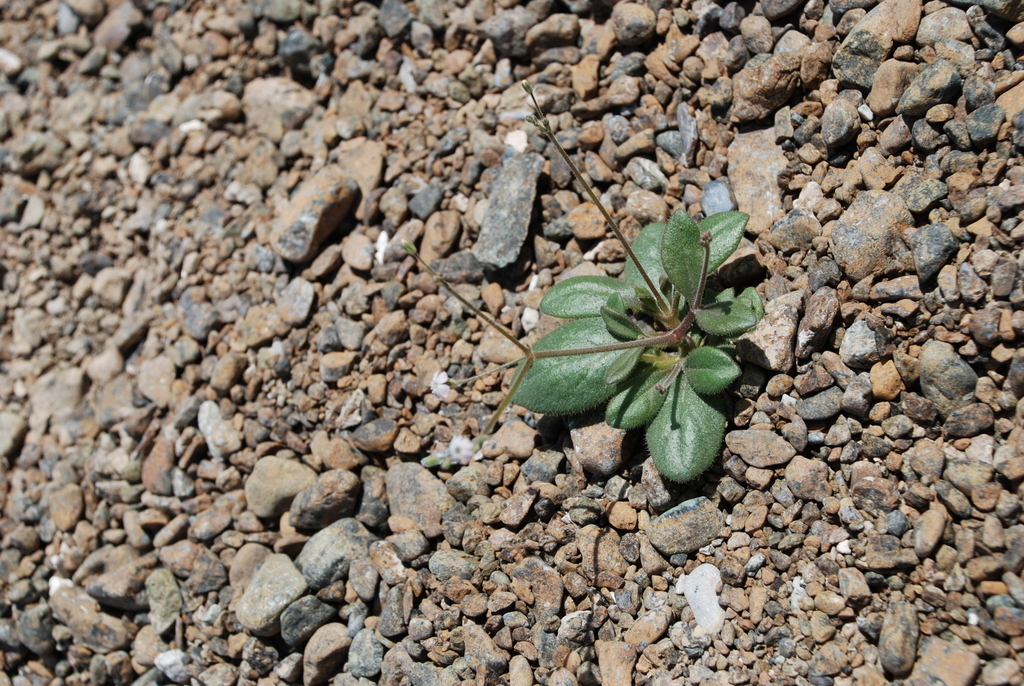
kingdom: Plantae
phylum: Tracheophyta
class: Magnoliopsida
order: Caryophyllales
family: Caryophyllaceae
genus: Psammophiliella
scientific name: Psammophiliella bellidifolia
